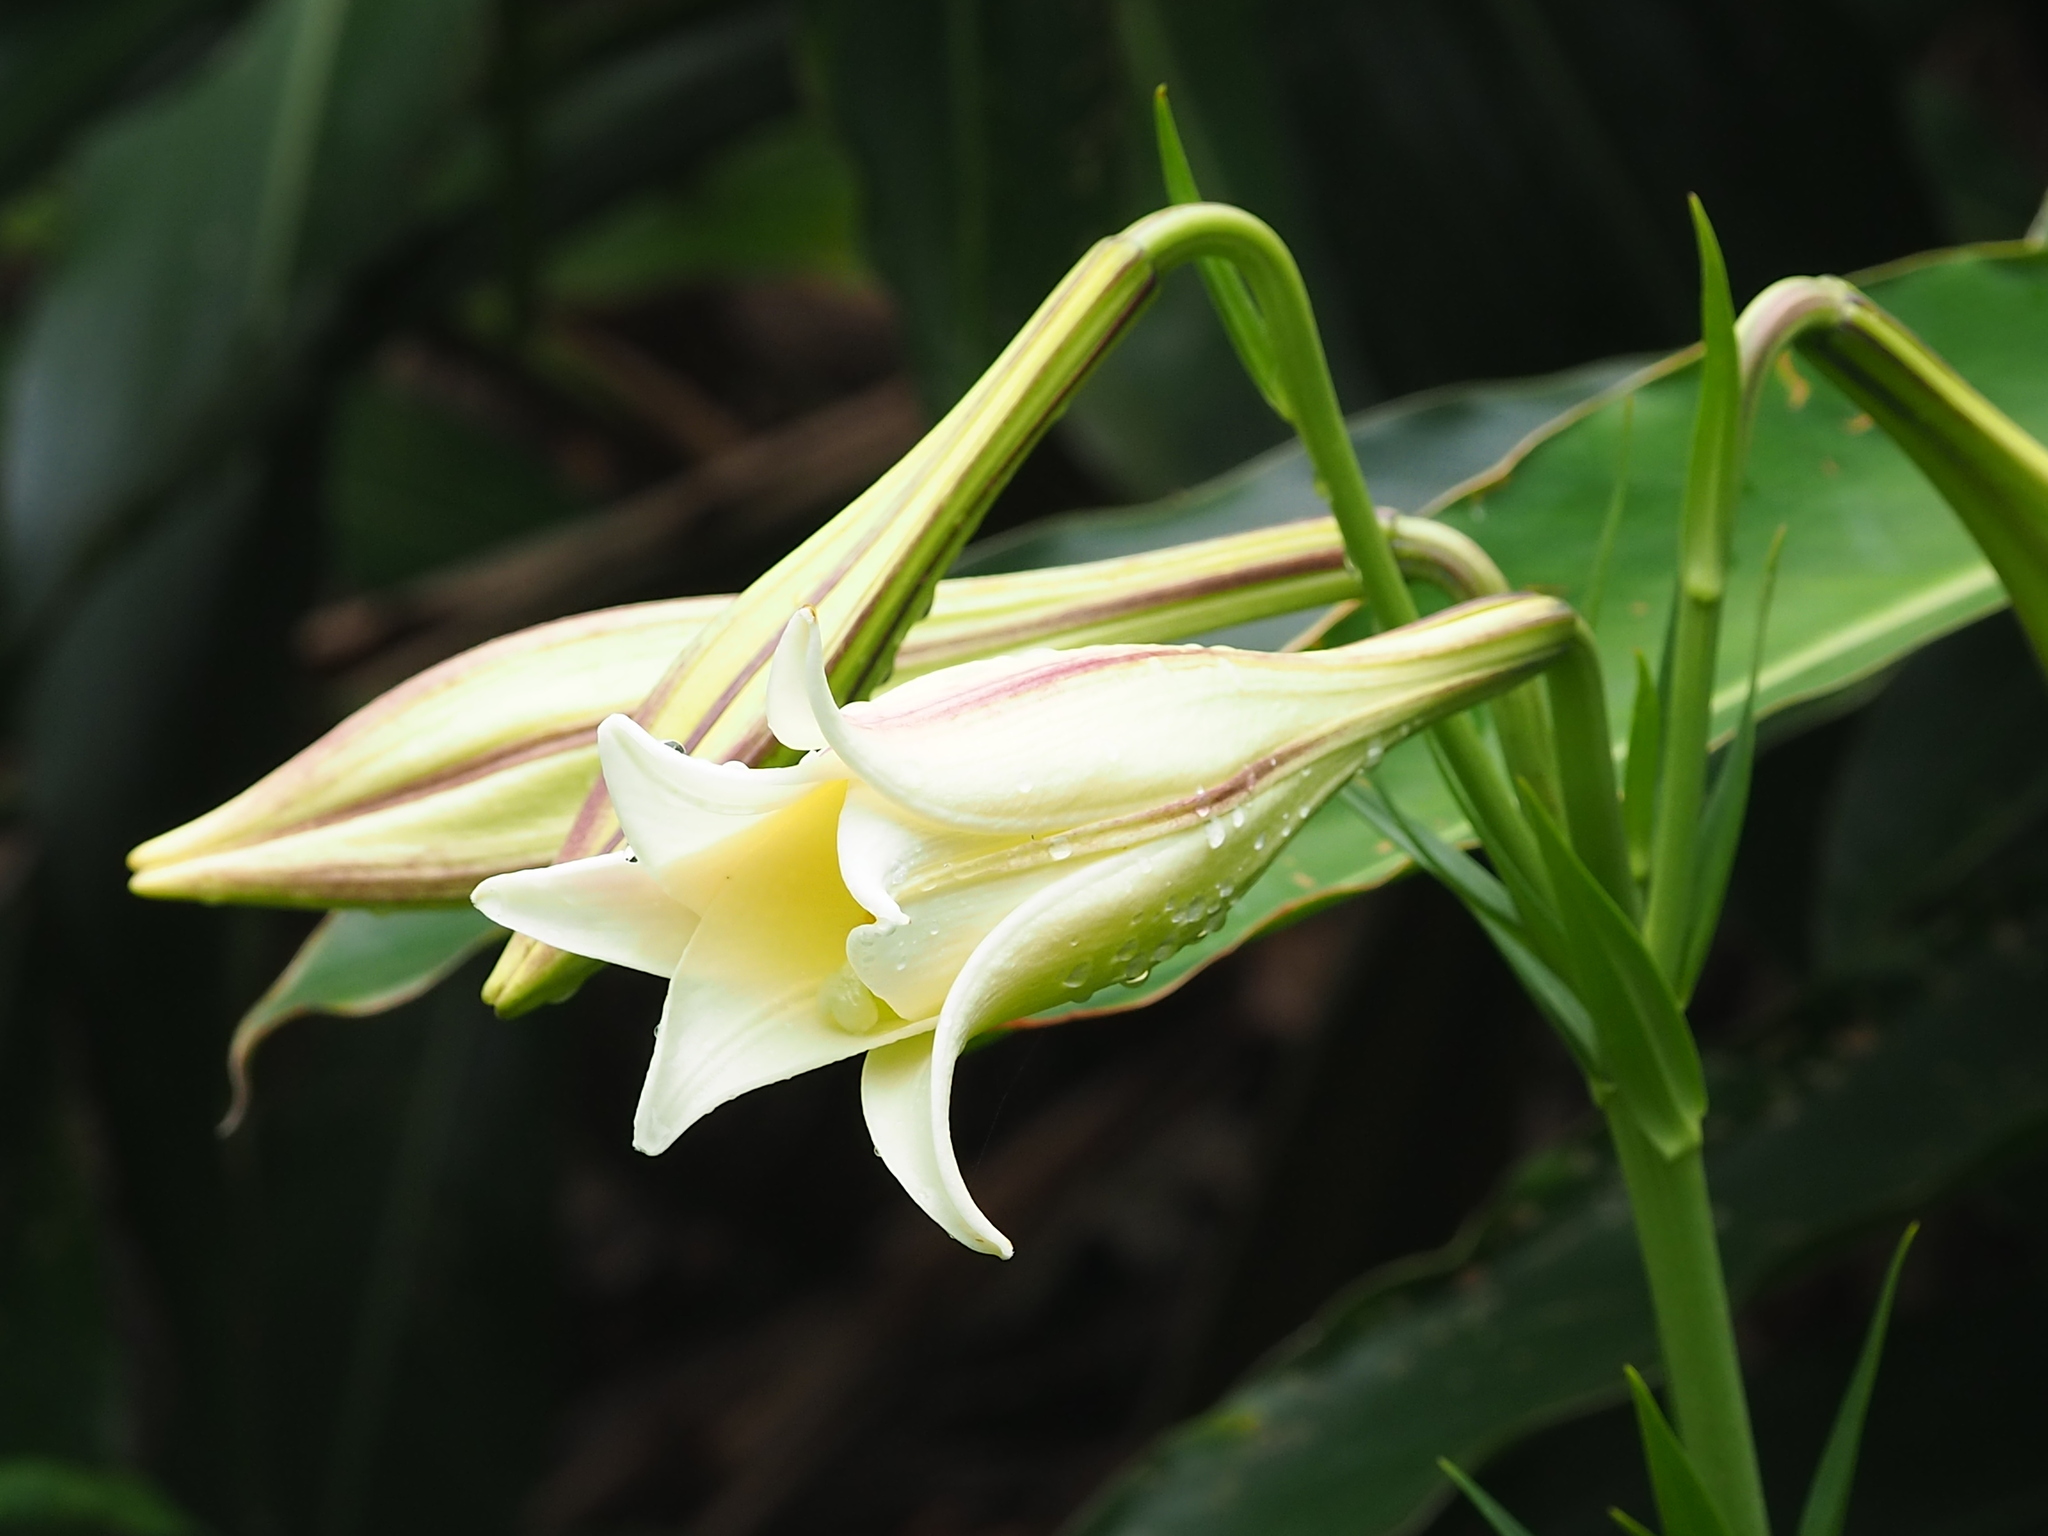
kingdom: Plantae
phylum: Tracheophyta
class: Liliopsida
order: Liliales
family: Liliaceae
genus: Lilium
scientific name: Lilium longiflorum
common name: Easter lily
